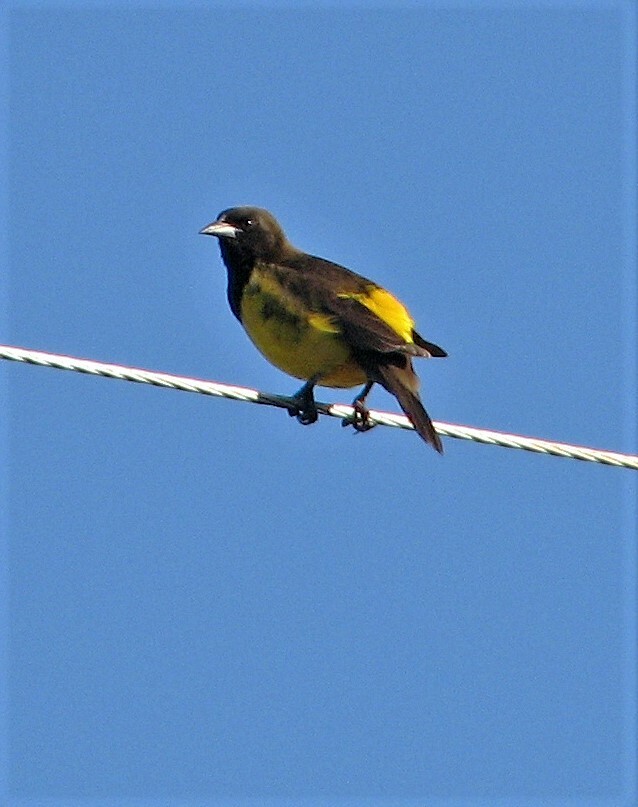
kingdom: Animalia
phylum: Chordata
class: Aves
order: Passeriformes
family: Icteridae
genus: Pseudoleistes
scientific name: Pseudoleistes guirahuro
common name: Yellow-rumped marshbird
